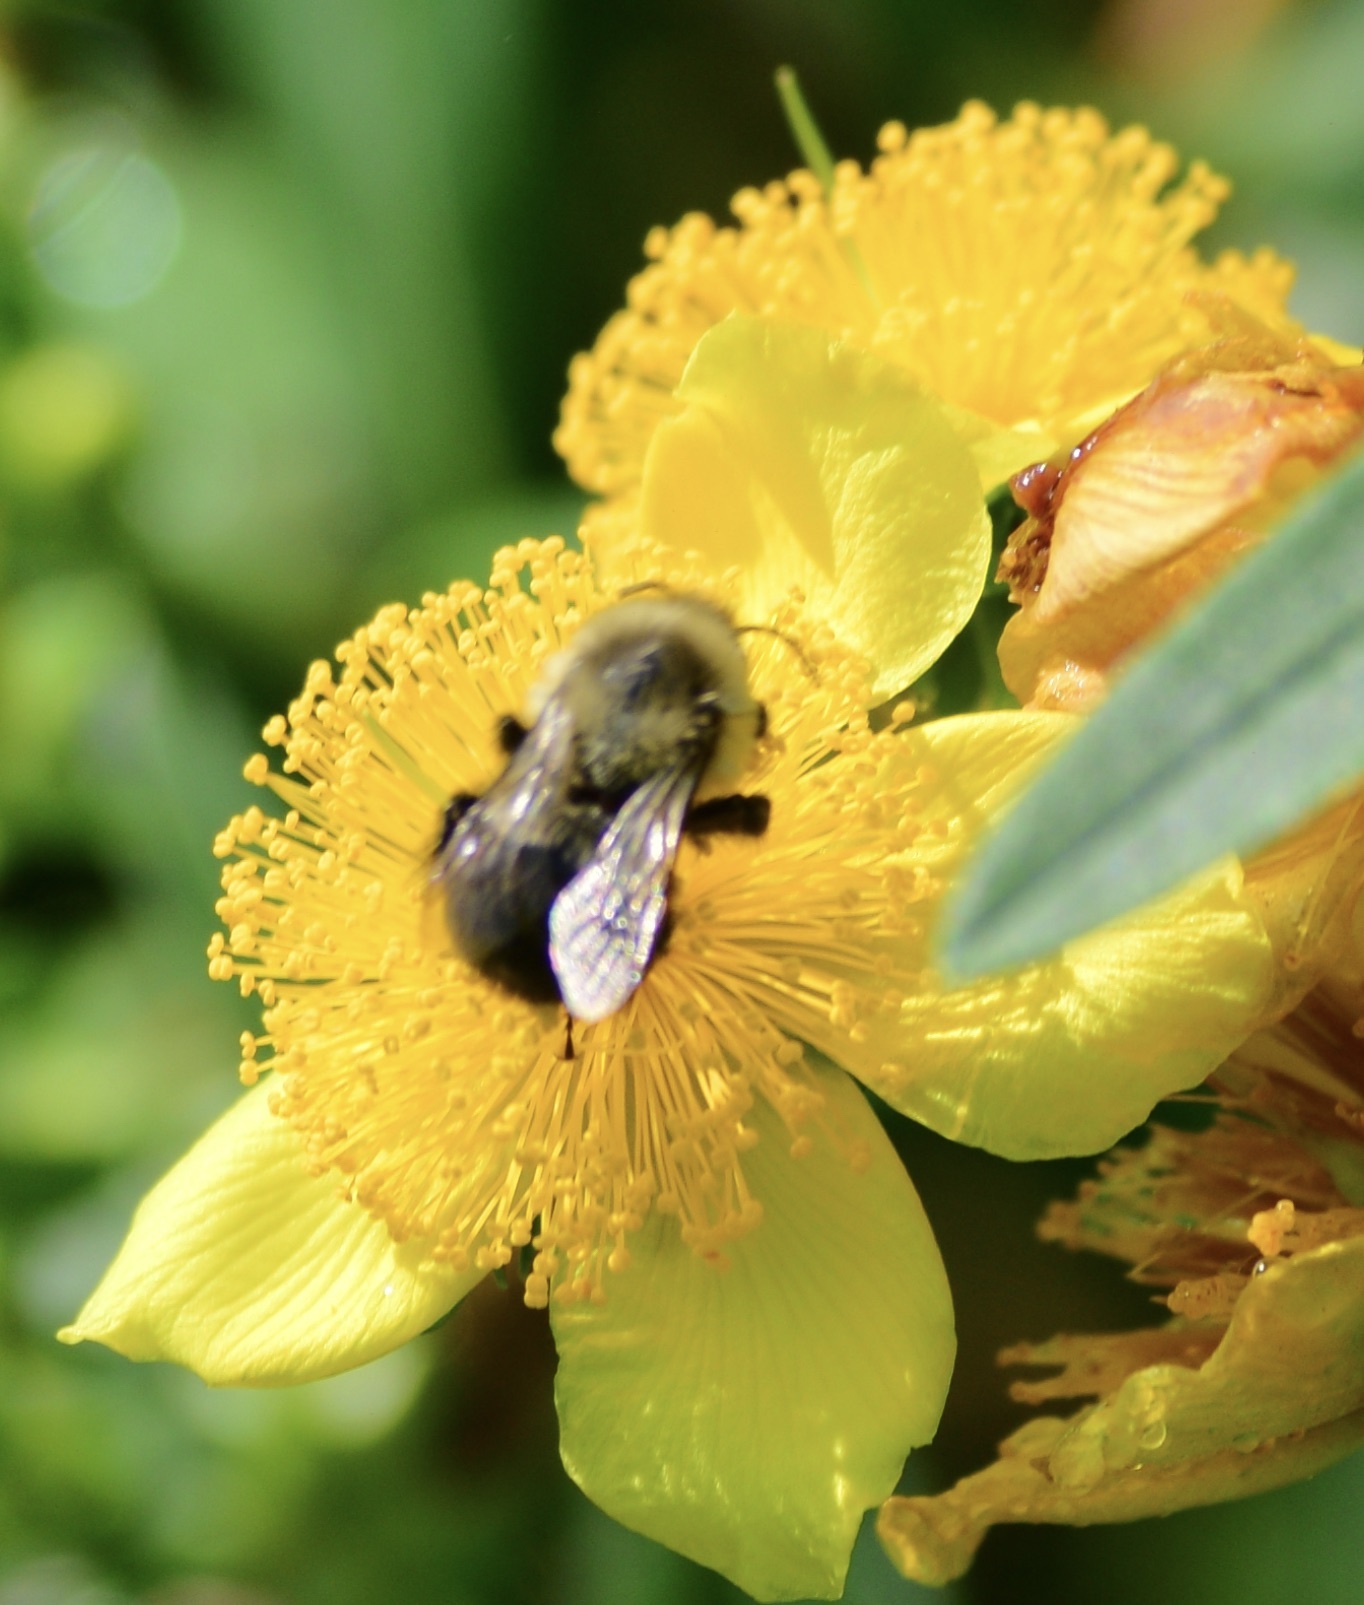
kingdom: Animalia
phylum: Arthropoda
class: Insecta
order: Hymenoptera
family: Apidae
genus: Bombus
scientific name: Bombus impatiens
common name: Common eastern bumble bee
